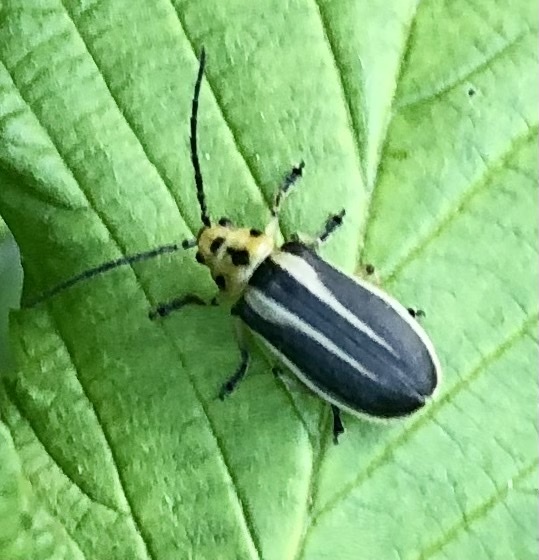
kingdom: Animalia
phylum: Arthropoda
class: Insecta
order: Coleoptera
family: Chrysomelidae
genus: Trirhabda
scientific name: Trirhabda bacharidis
